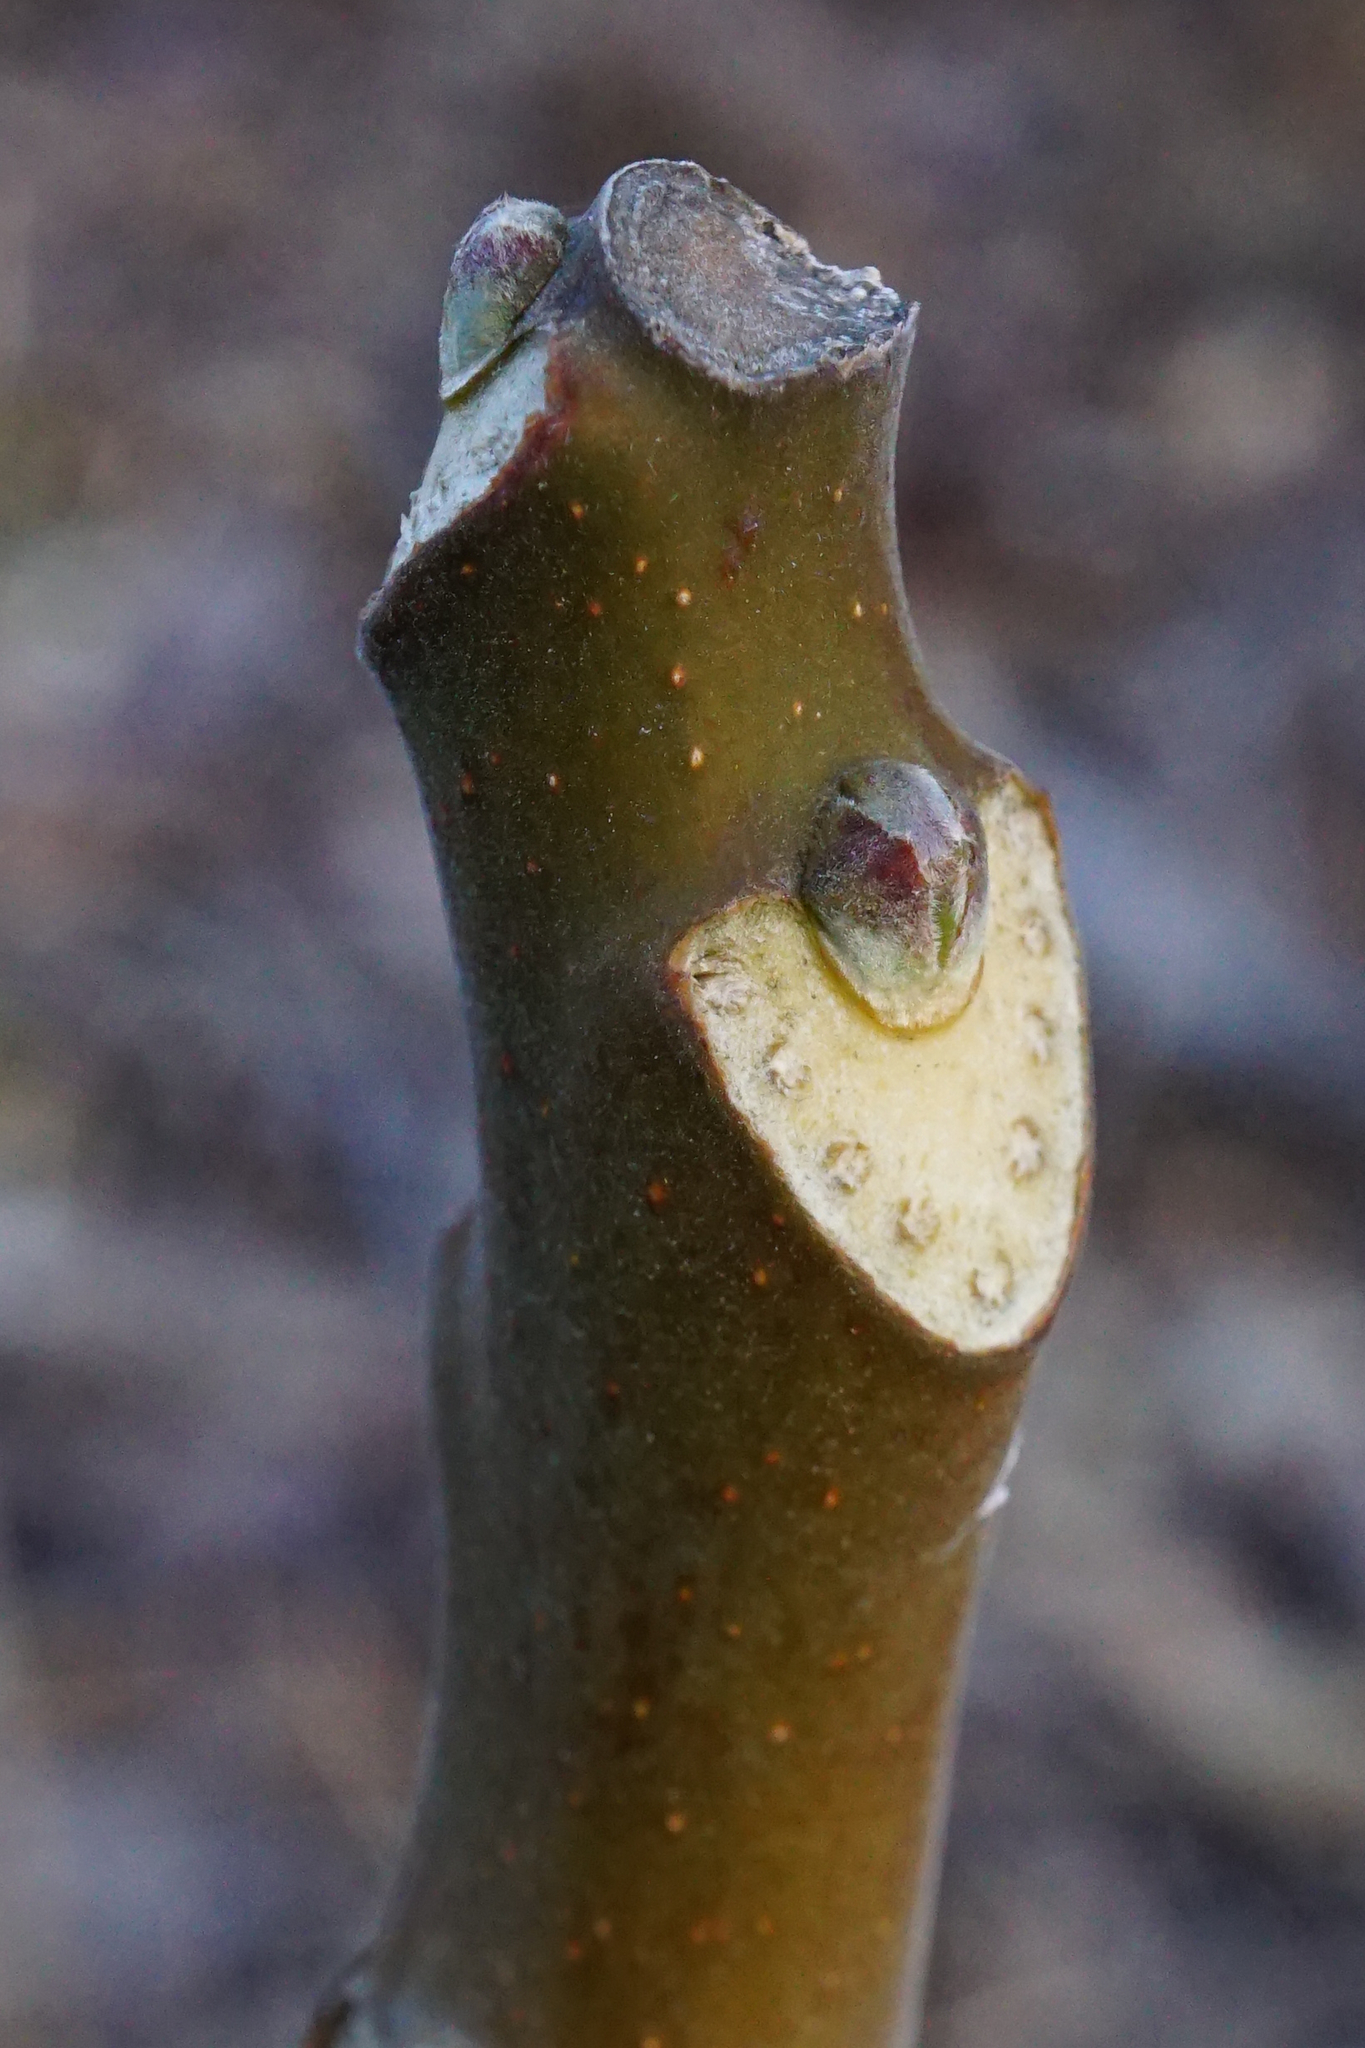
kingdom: Plantae
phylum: Tracheophyta
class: Magnoliopsida
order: Sapindales
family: Simaroubaceae
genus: Ailanthus
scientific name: Ailanthus altissima
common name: Tree-of-heaven
